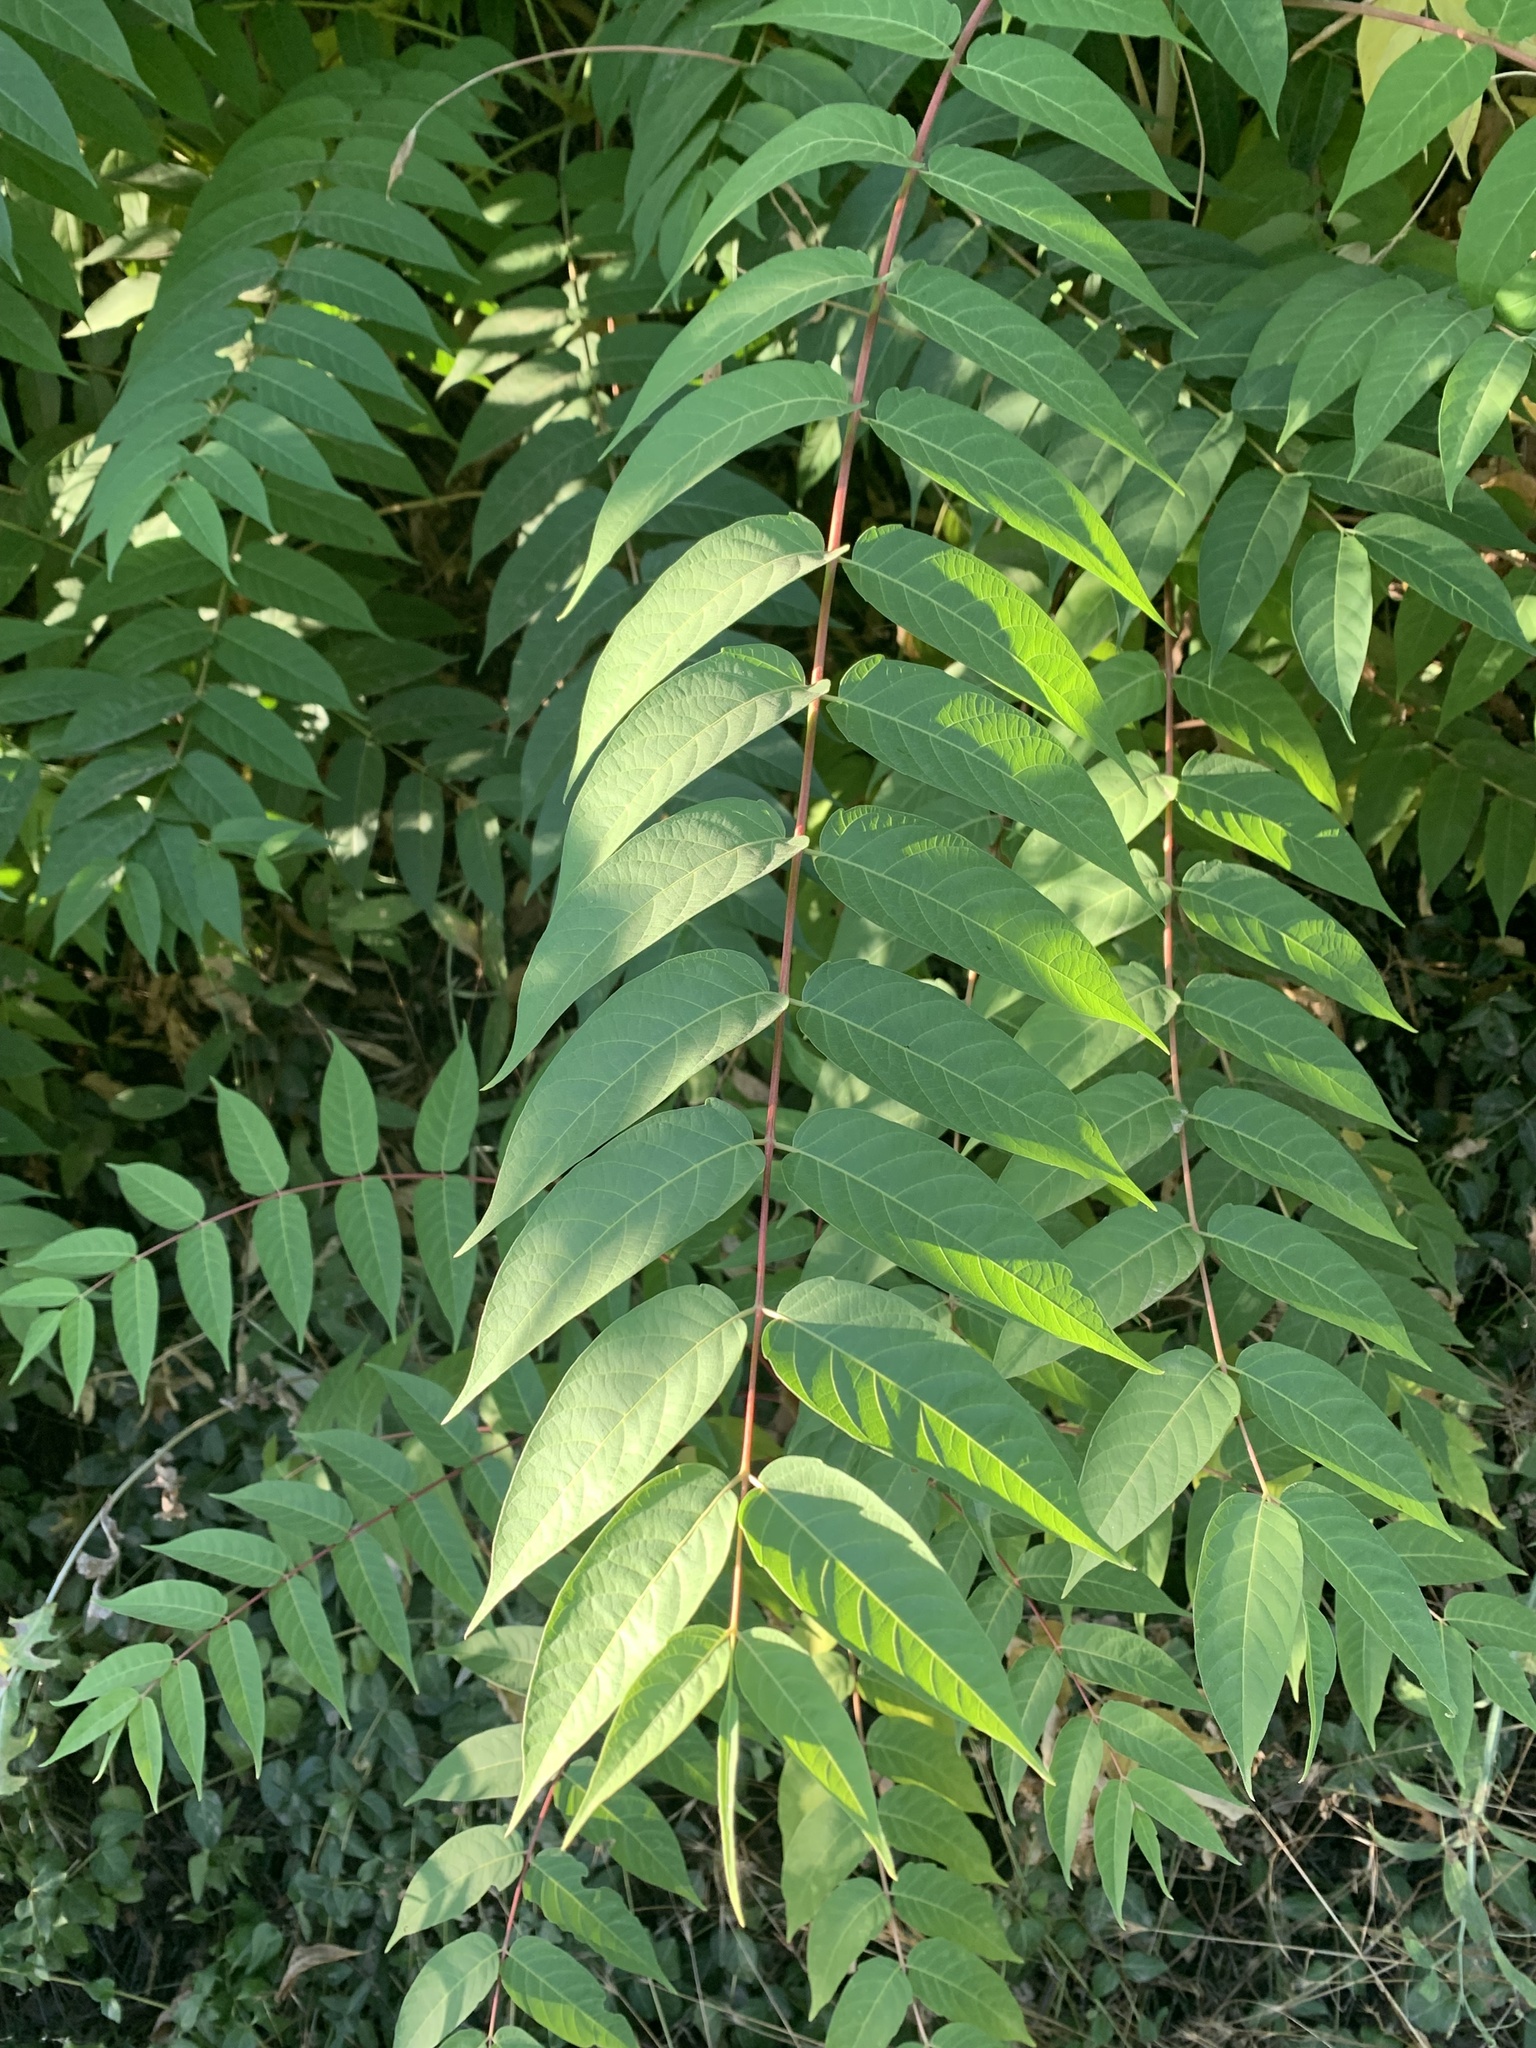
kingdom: Plantae
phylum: Tracheophyta
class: Magnoliopsida
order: Sapindales
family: Simaroubaceae
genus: Ailanthus
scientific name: Ailanthus altissima
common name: Tree-of-heaven
